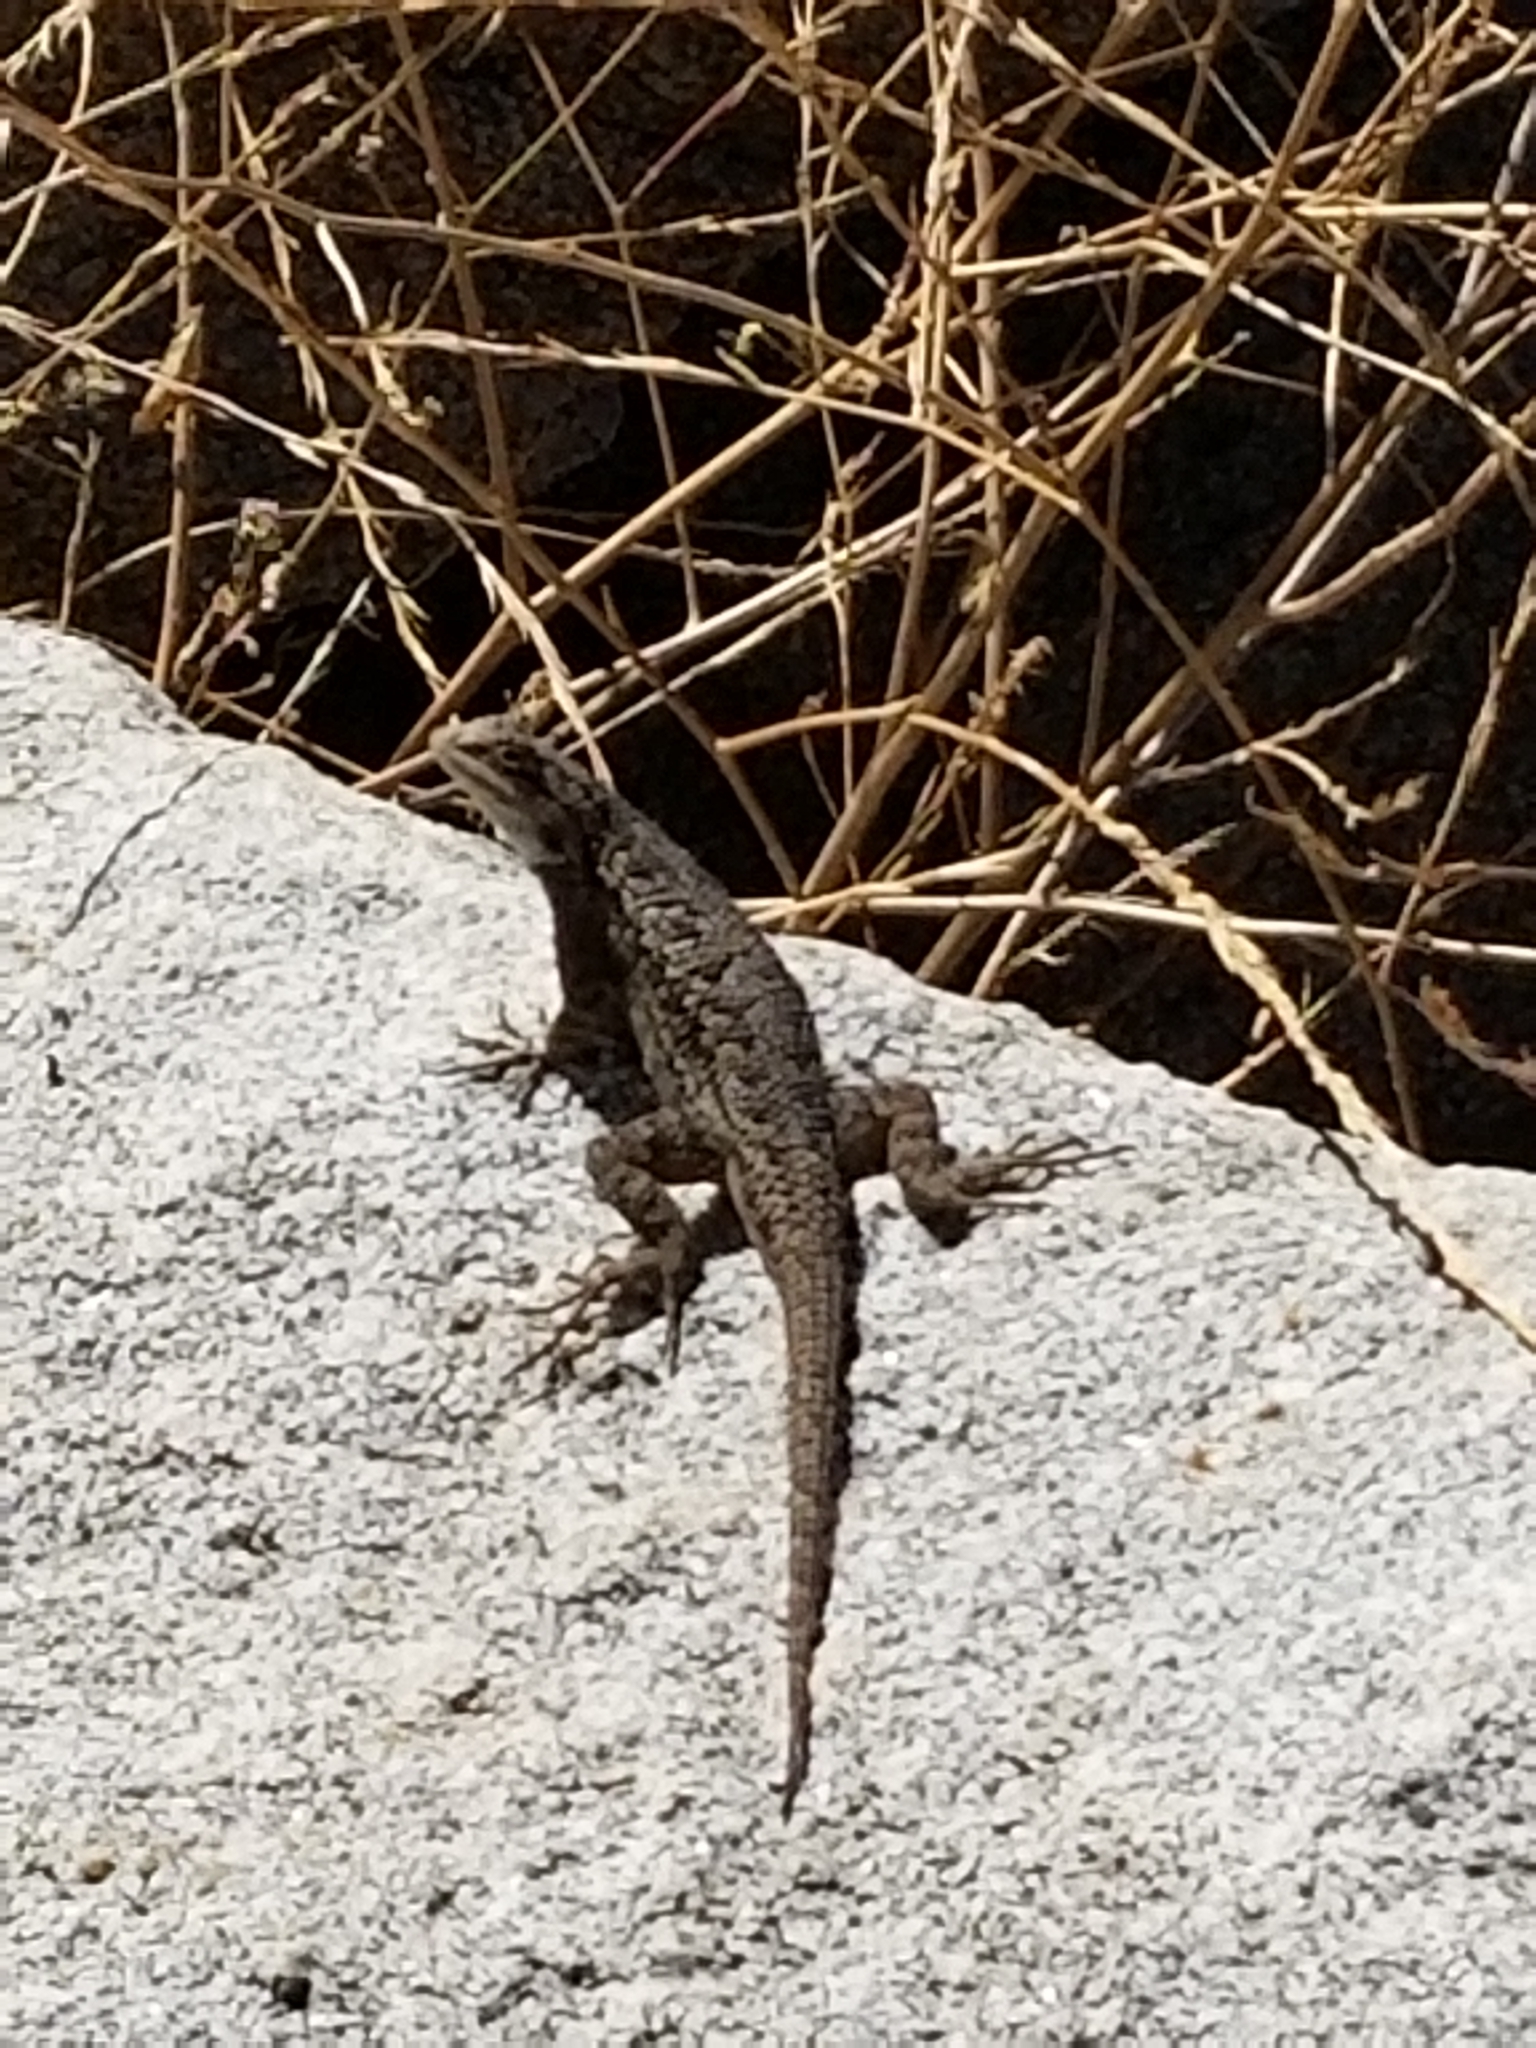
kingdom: Animalia
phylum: Chordata
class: Squamata
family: Phrynosomatidae
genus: Sceloporus
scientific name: Sceloporus occidentalis
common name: Western fence lizard
